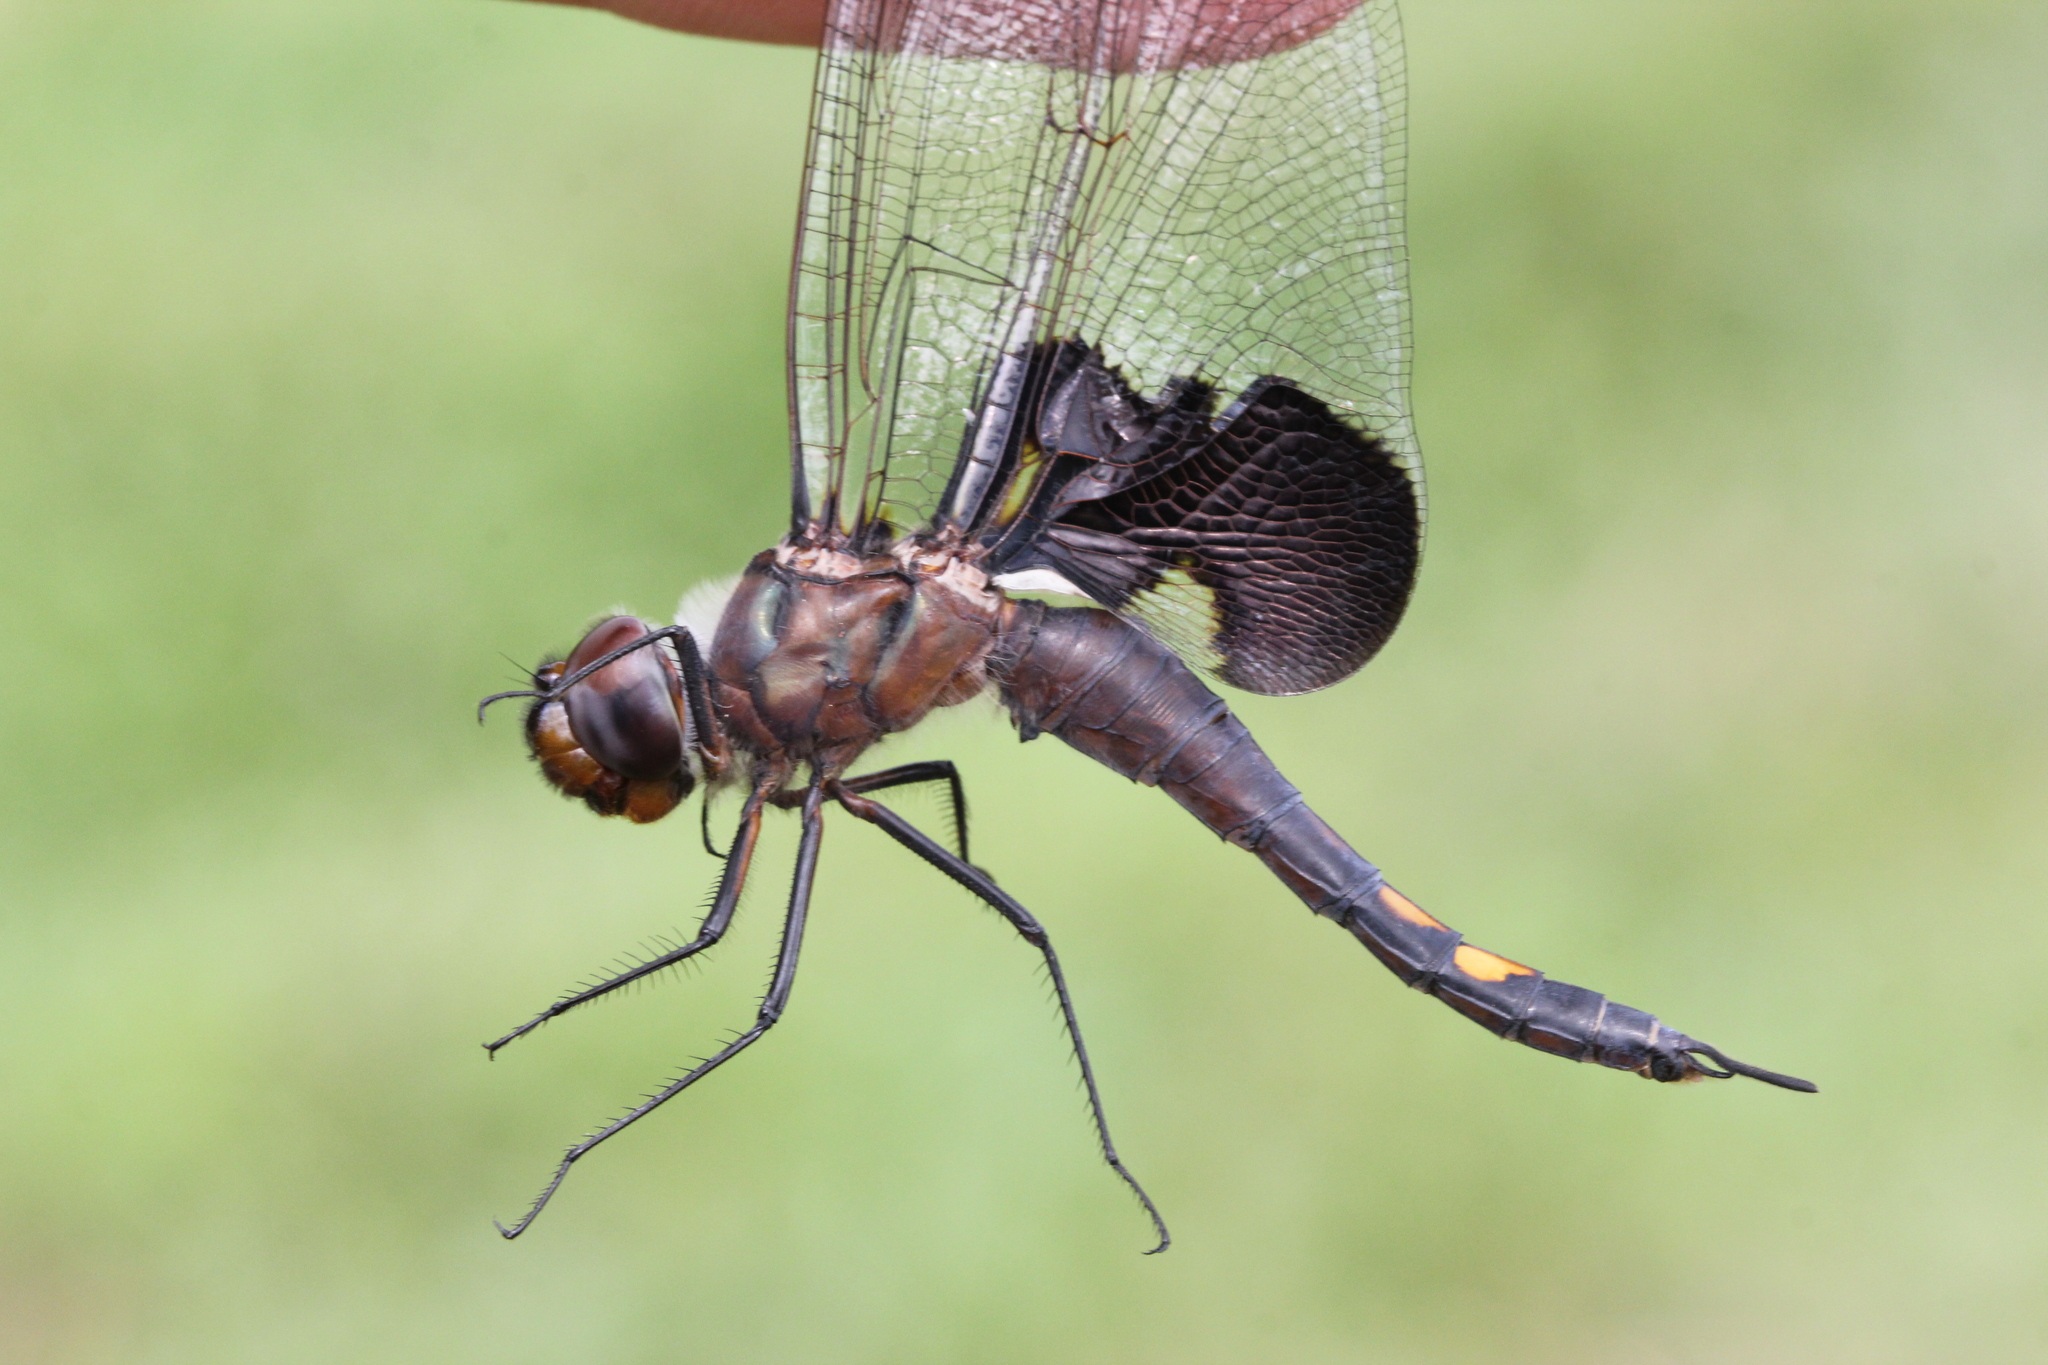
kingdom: Animalia
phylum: Arthropoda
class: Insecta
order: Odonata
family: Libellulidae
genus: Tramea
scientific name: Tramea lacerata
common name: Black saddlebags
